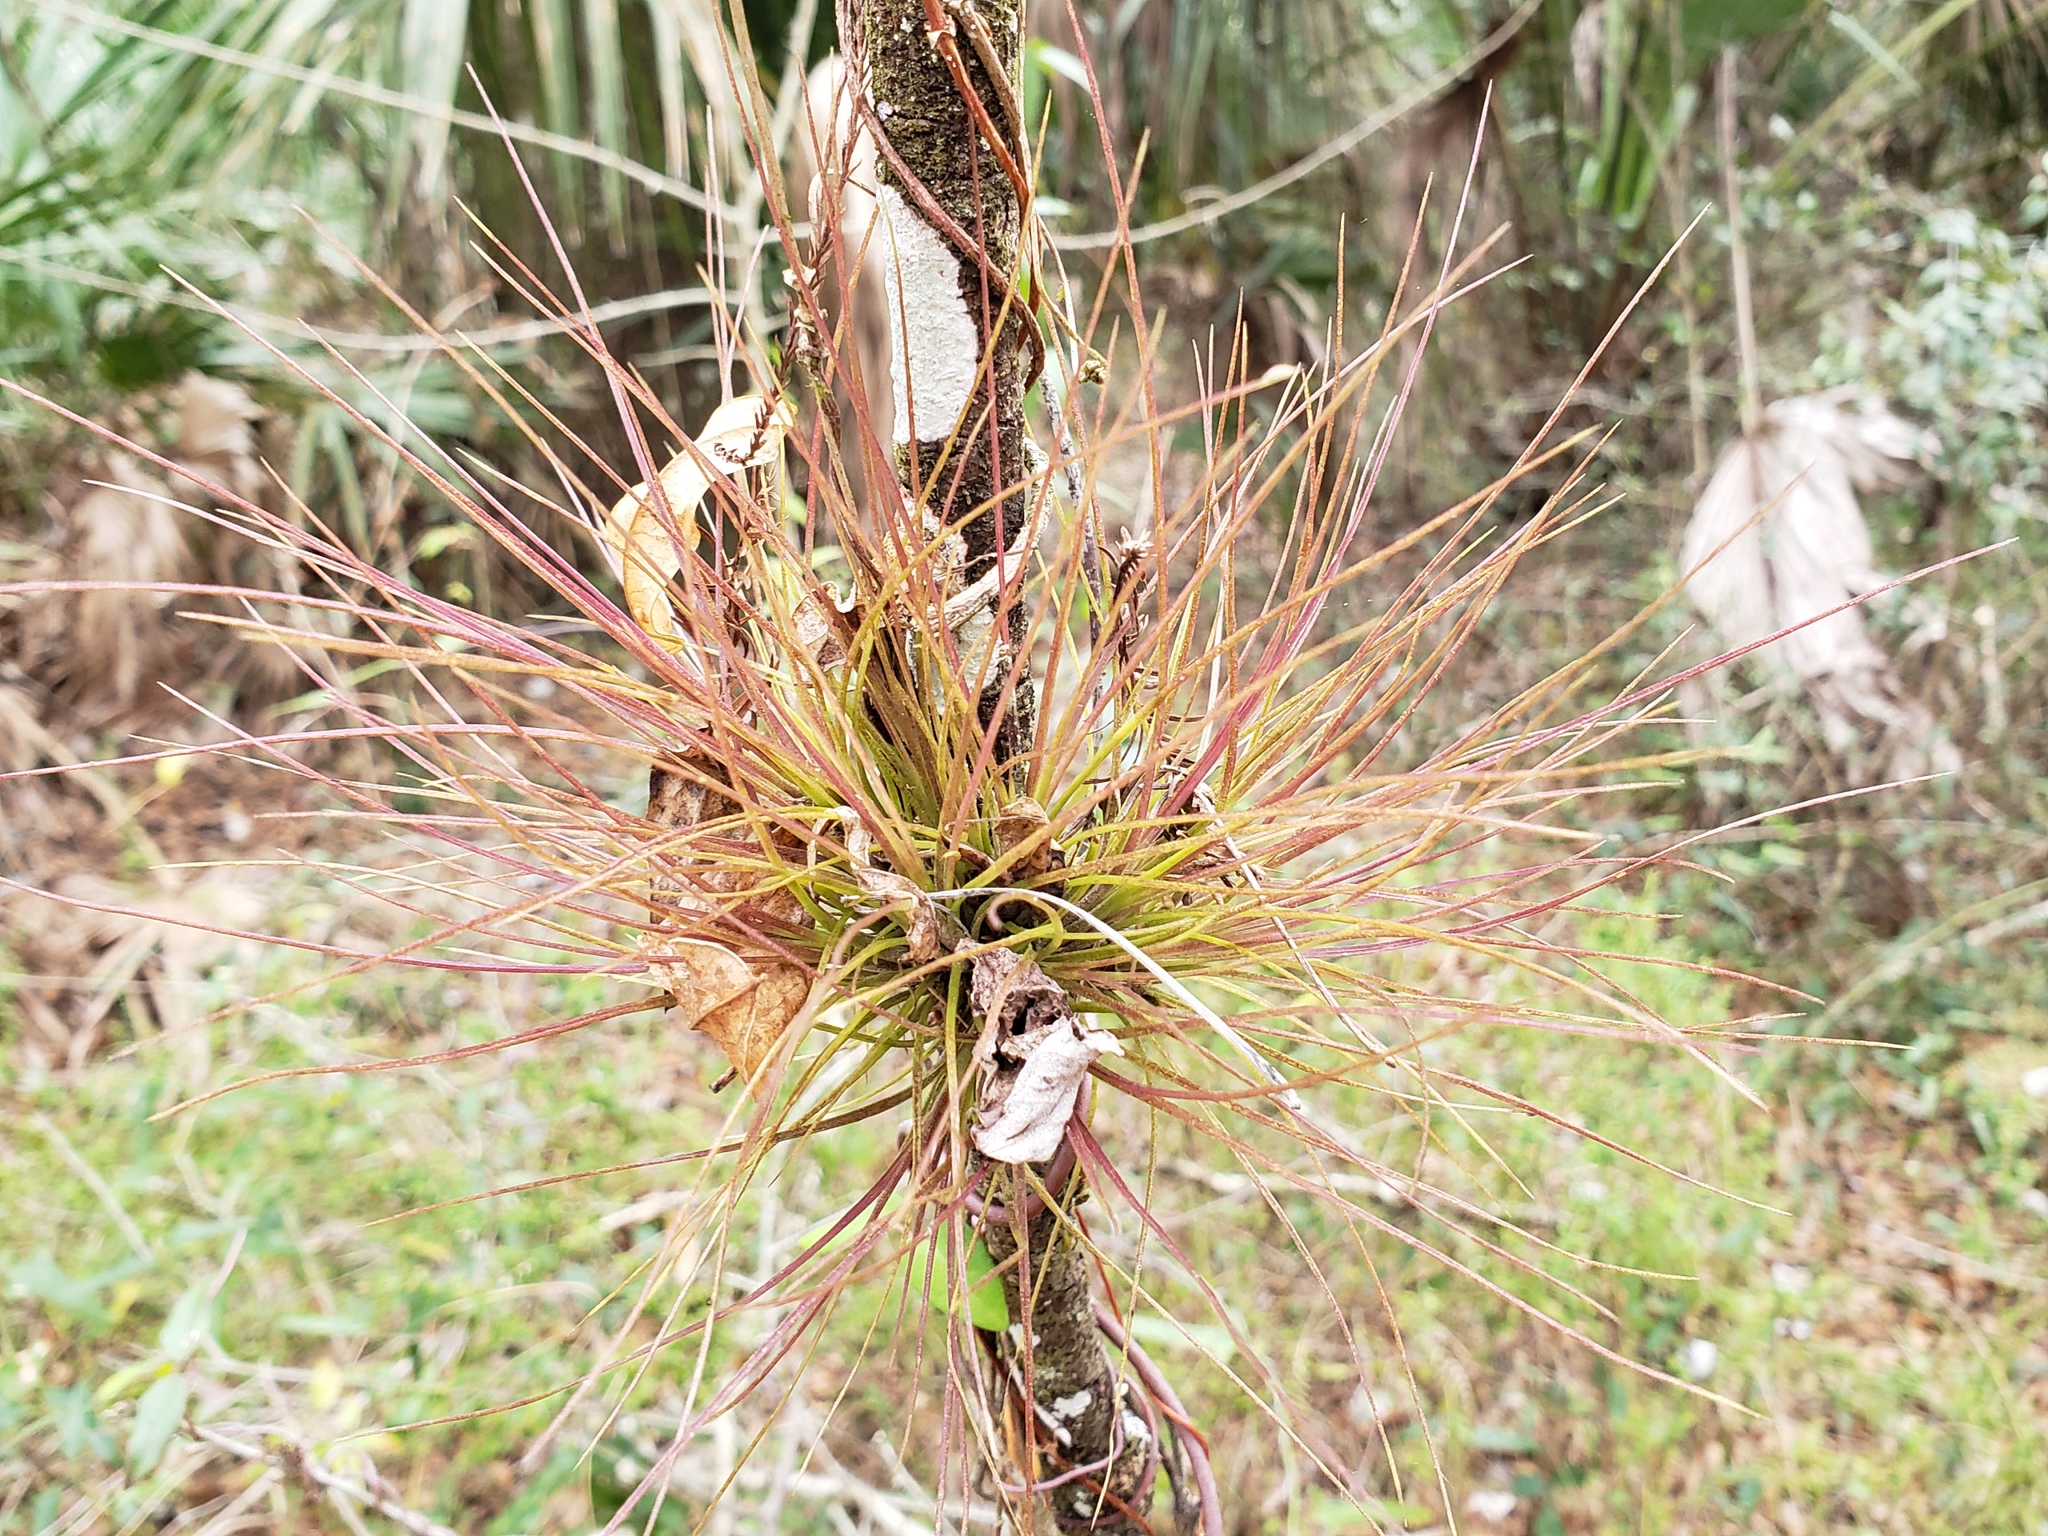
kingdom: Plantae
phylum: Tracheophyta
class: Liliopsida
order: Poales
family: Bromeliaceae
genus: Tillandsia
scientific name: Tillandsia setacea
